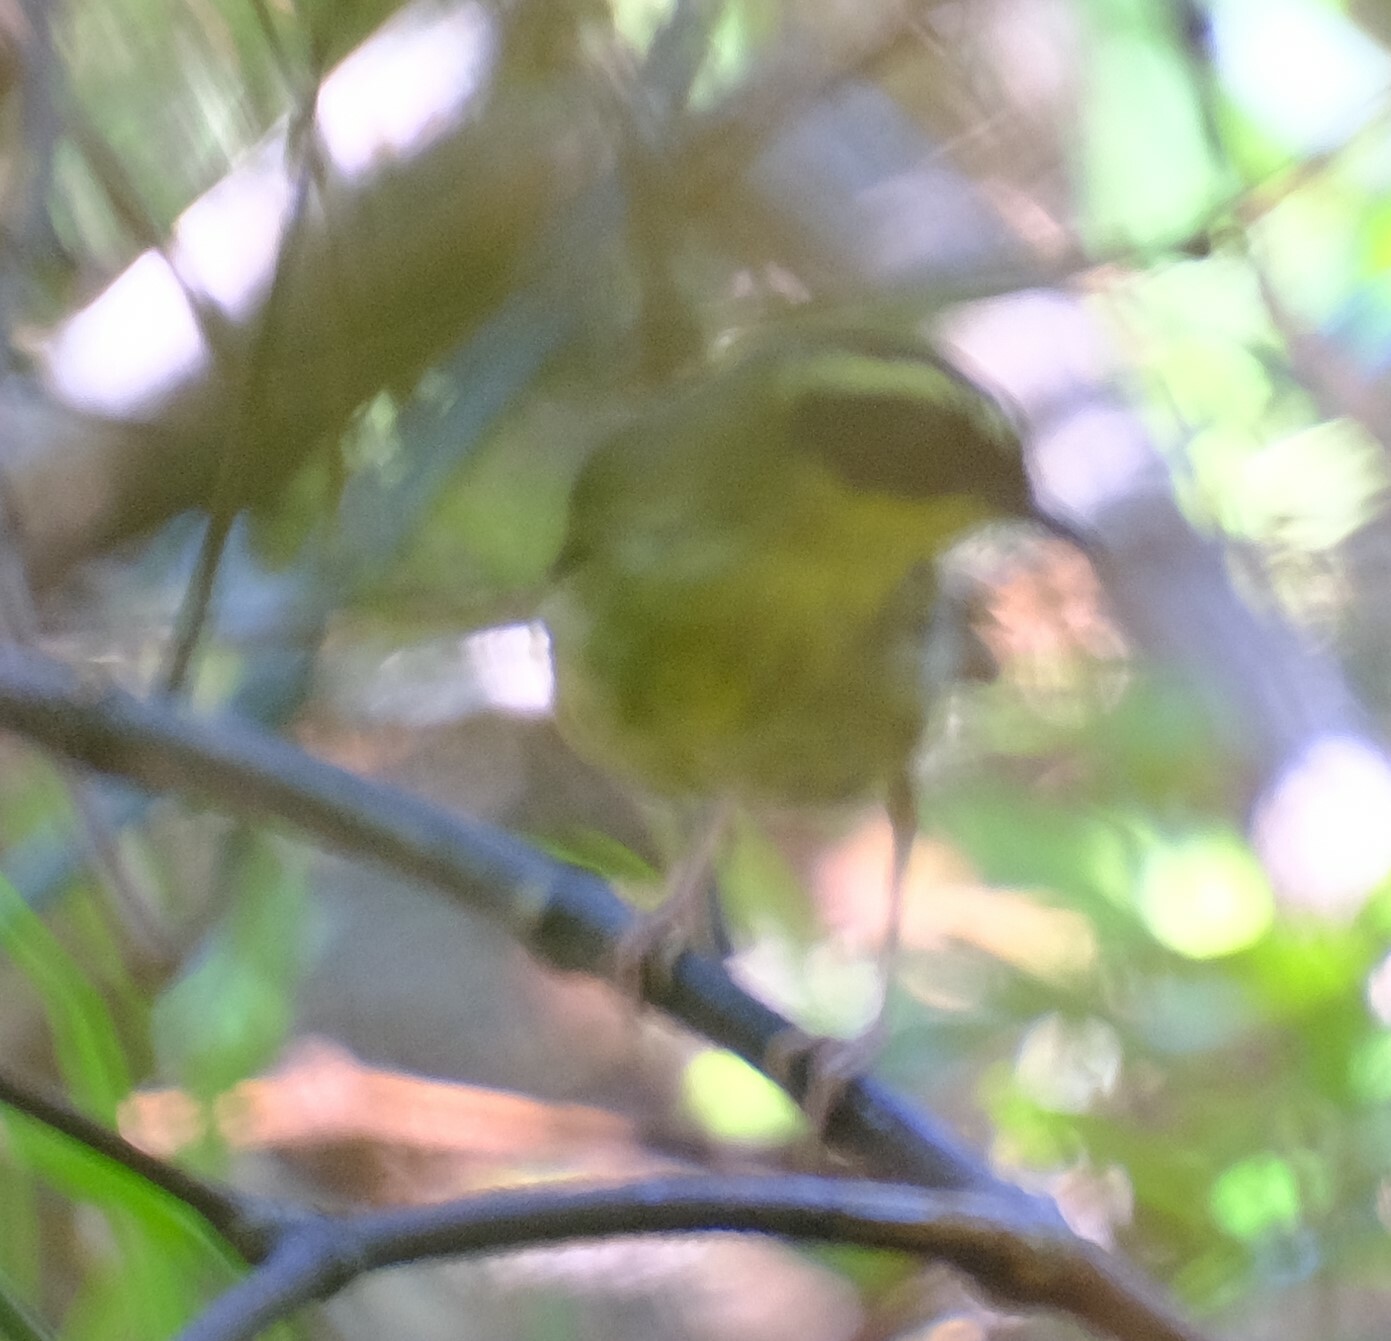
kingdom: Animalia
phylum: Chordata
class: Aves
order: Passeriformes
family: Acanthizidae
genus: Sericornis
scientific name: Sericornis citreogularis
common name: Yellow-throated scrubwren
